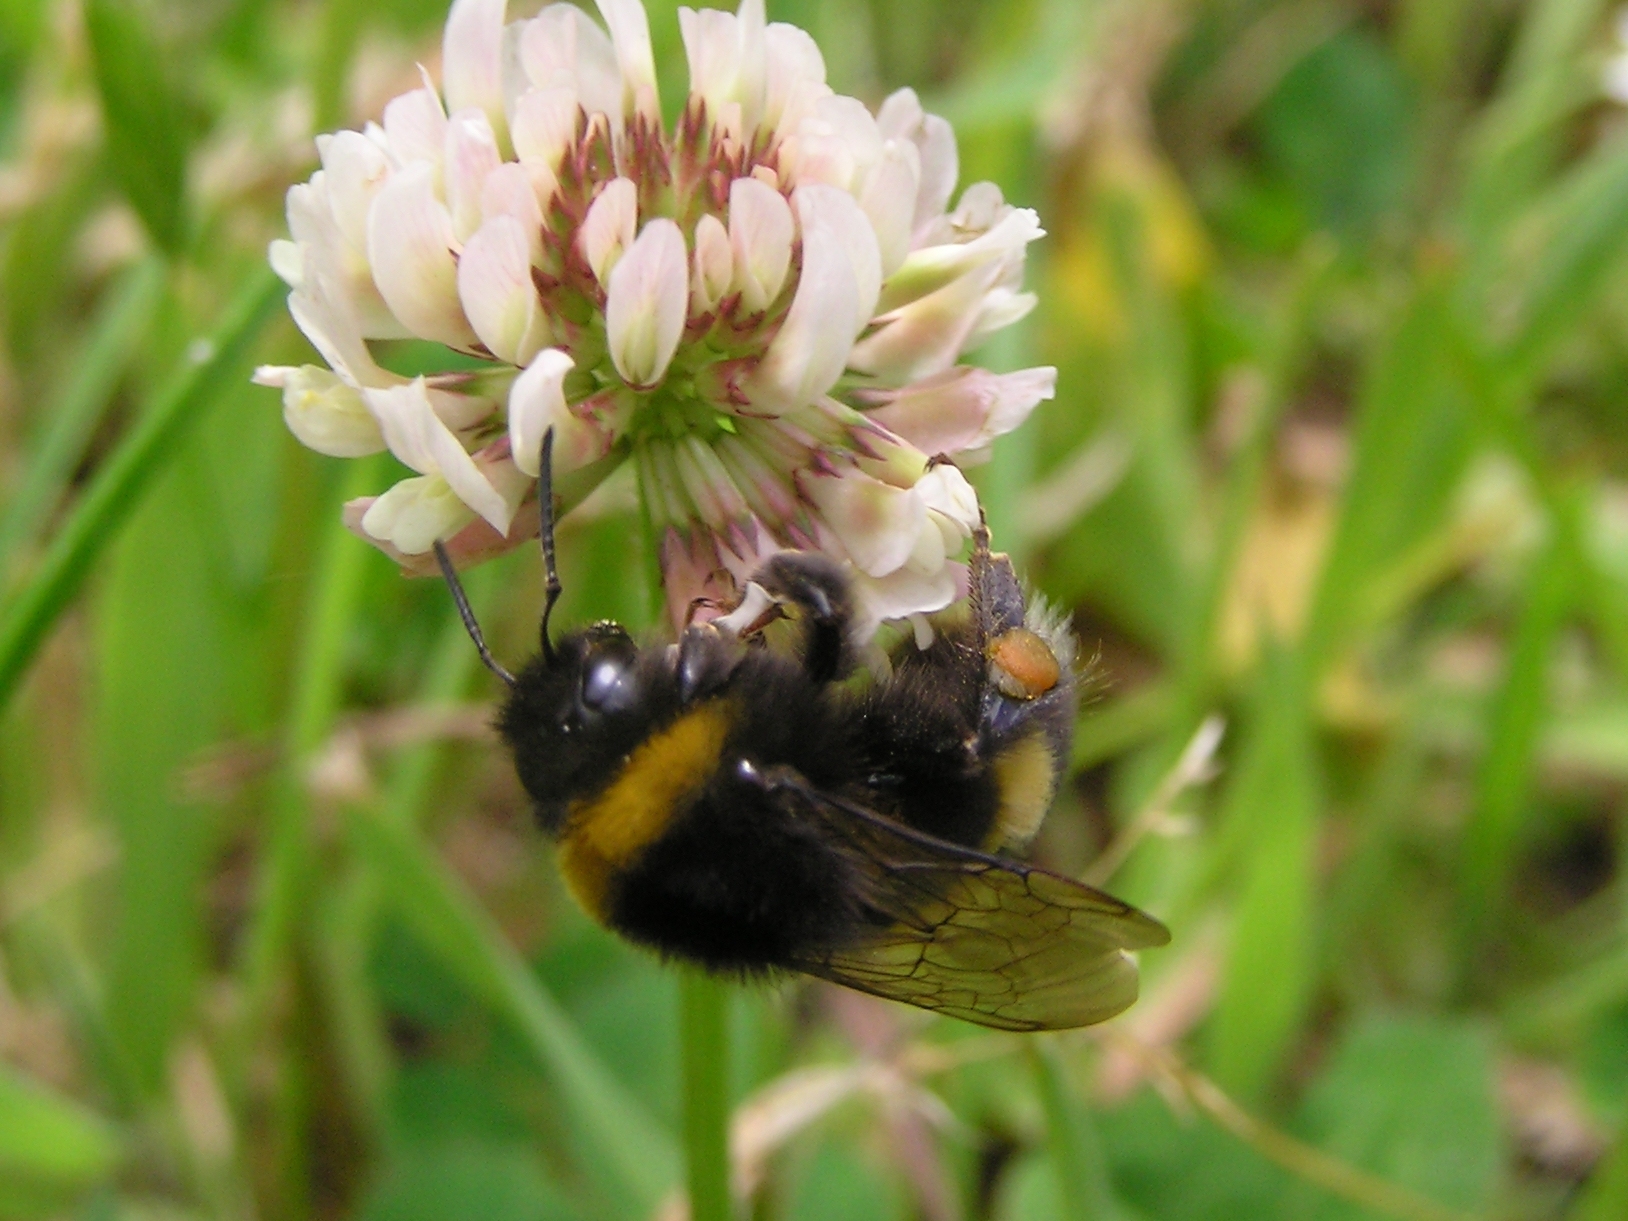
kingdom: Animalia
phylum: Arthropoda
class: Insecta
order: Hymenoptera
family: Apidae
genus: Bombus
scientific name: Bombus terrestris
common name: Buff-tailed bumblebee
